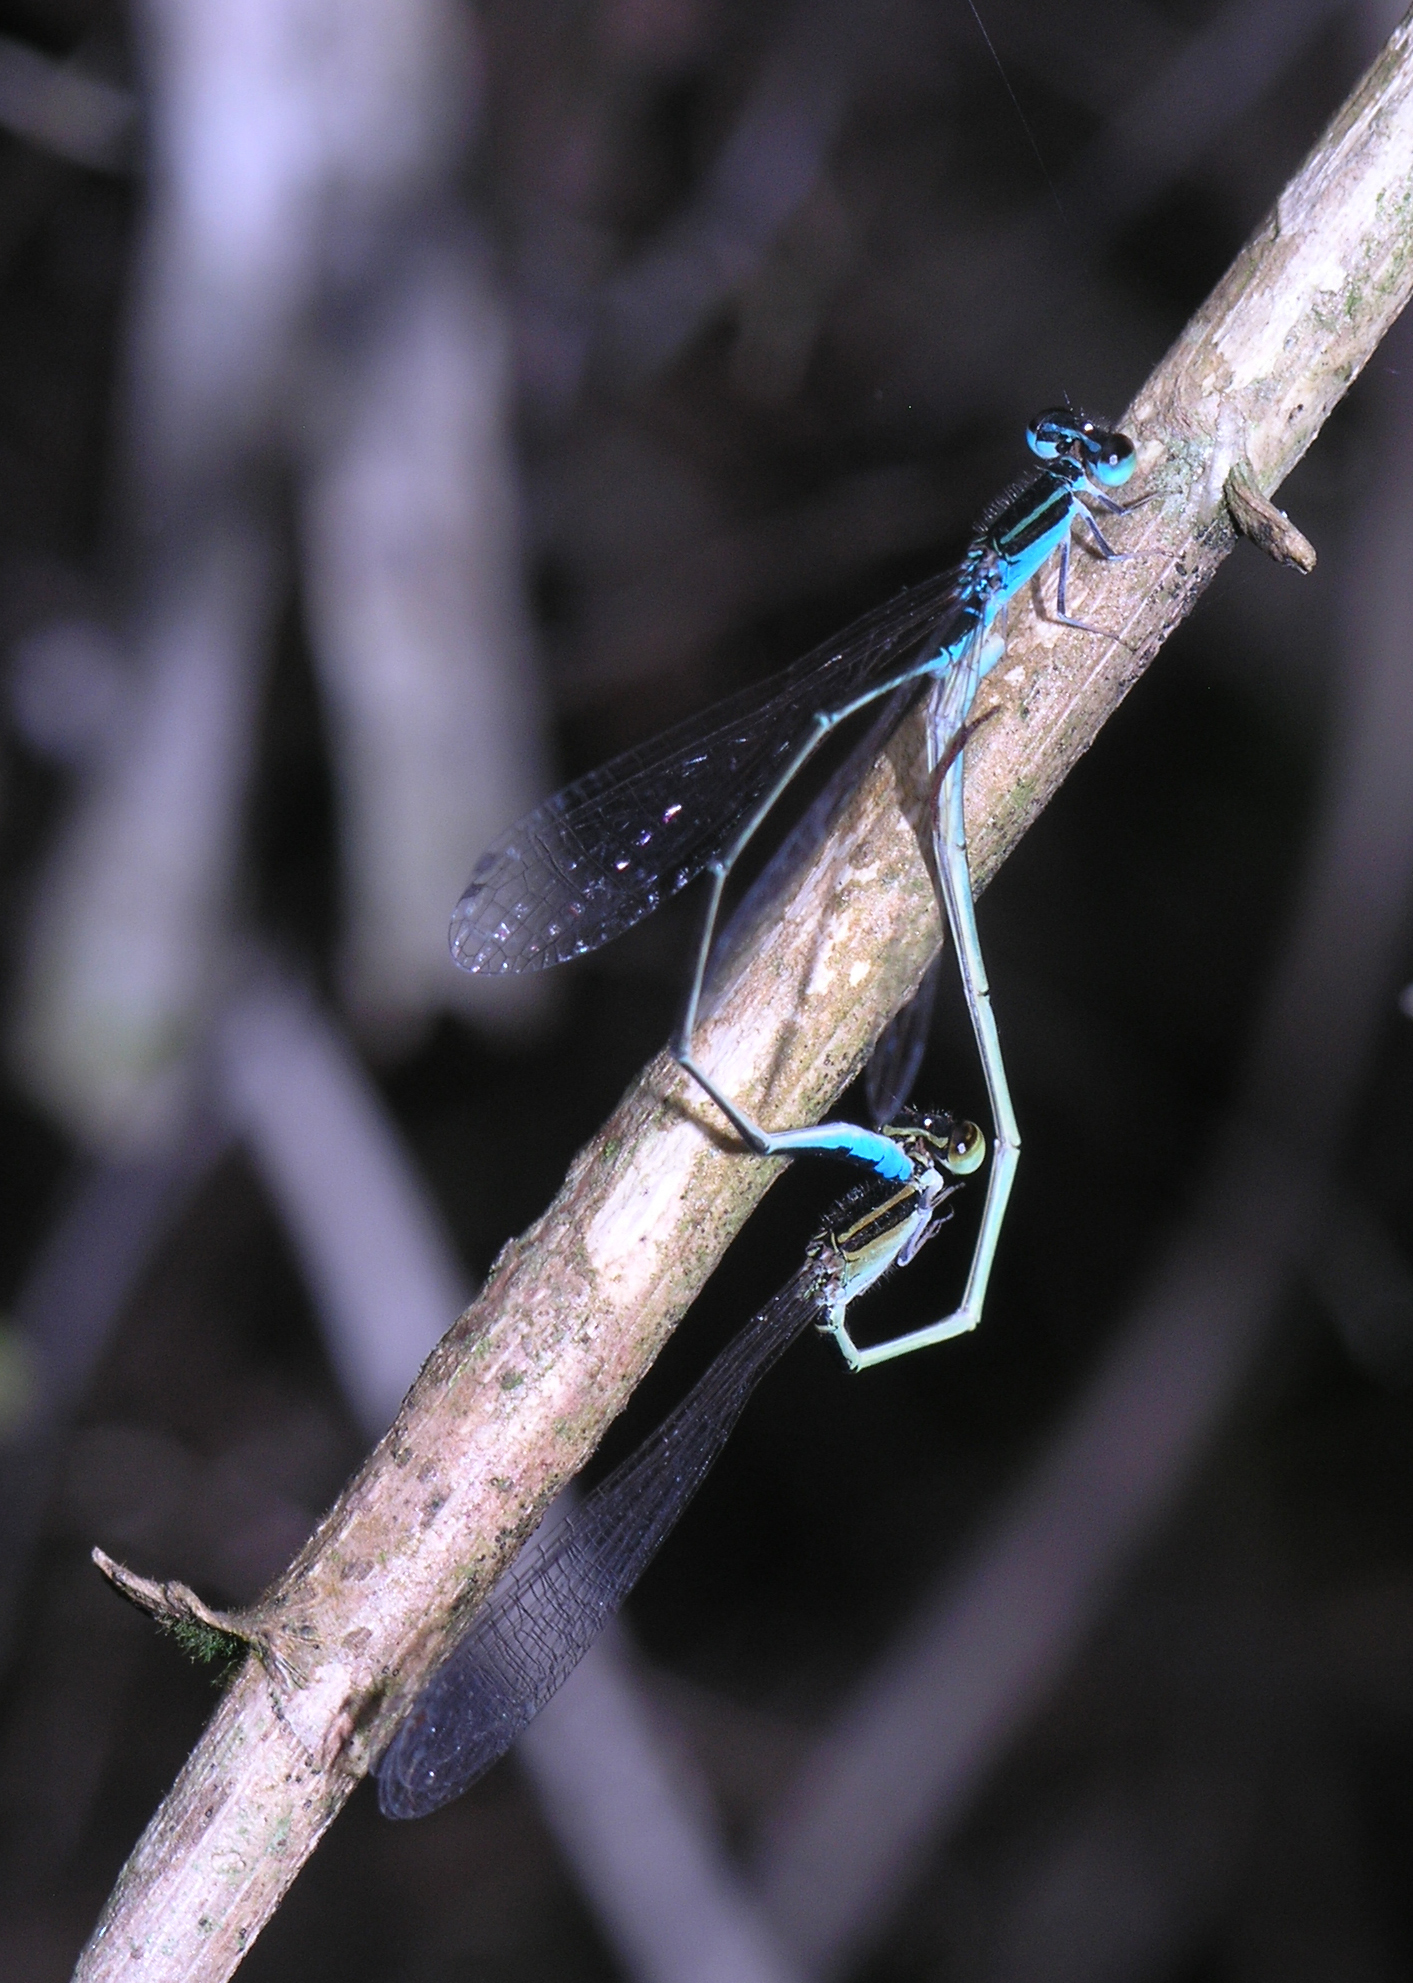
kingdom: Animalia
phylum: Arthropoda
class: Insecta
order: Odonata
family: Coenagrionidae
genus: Aciagrion
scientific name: Aciagrion borneense
